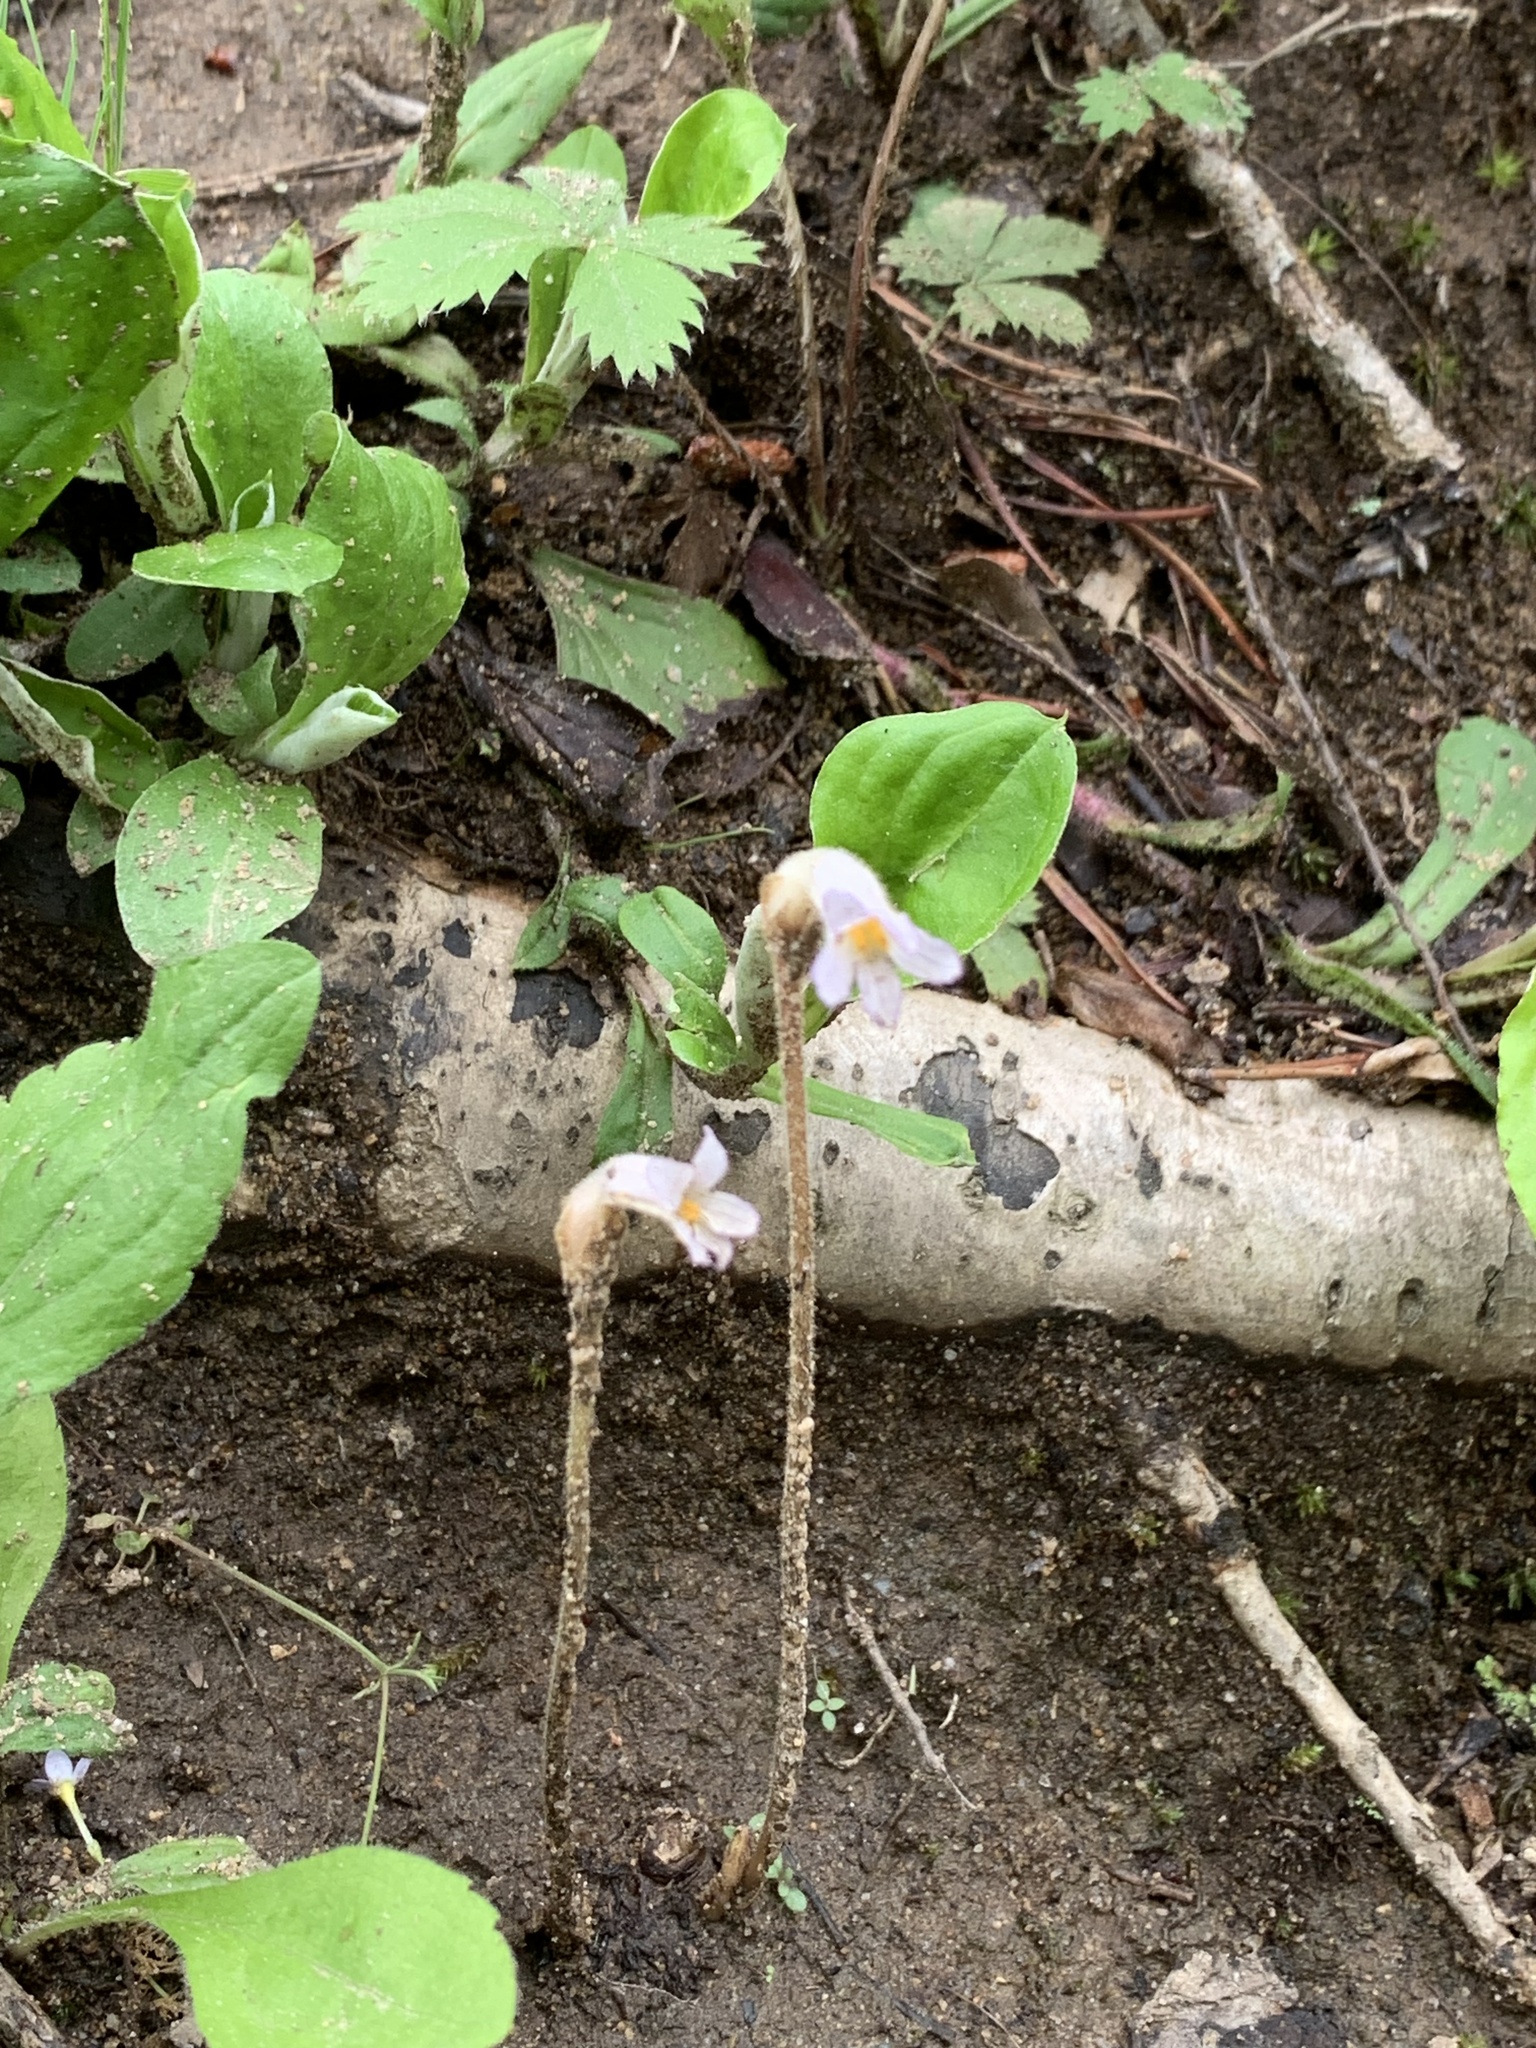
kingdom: Plantae
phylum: Tracheophyta
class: Magnoliopsida
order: Lamiales
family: Orobanchaceae
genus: Aphyllon
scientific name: Aphyllon uniflorum
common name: One-flowered broomrape
